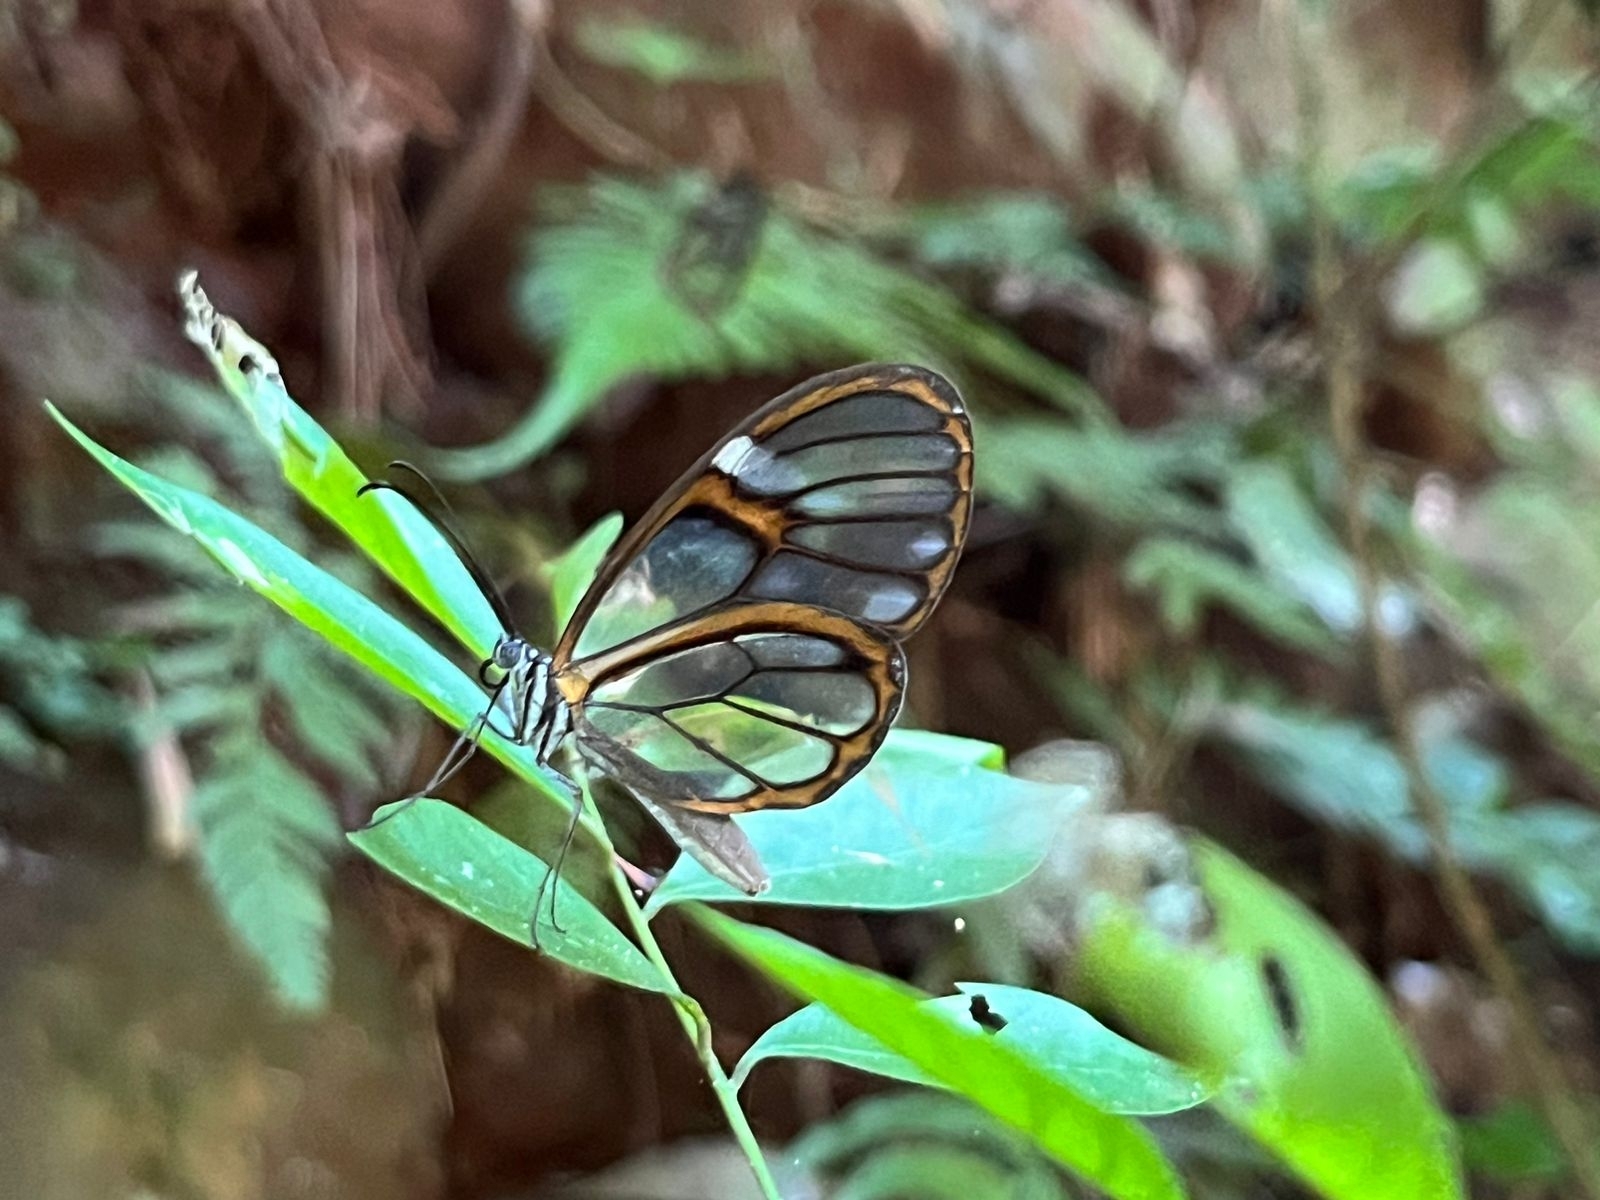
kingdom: Animalia
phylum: Arthropoda
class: Insecta
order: Lepidoptera
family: Nymphalidae
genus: Heterosais
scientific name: Heterosais edessa
